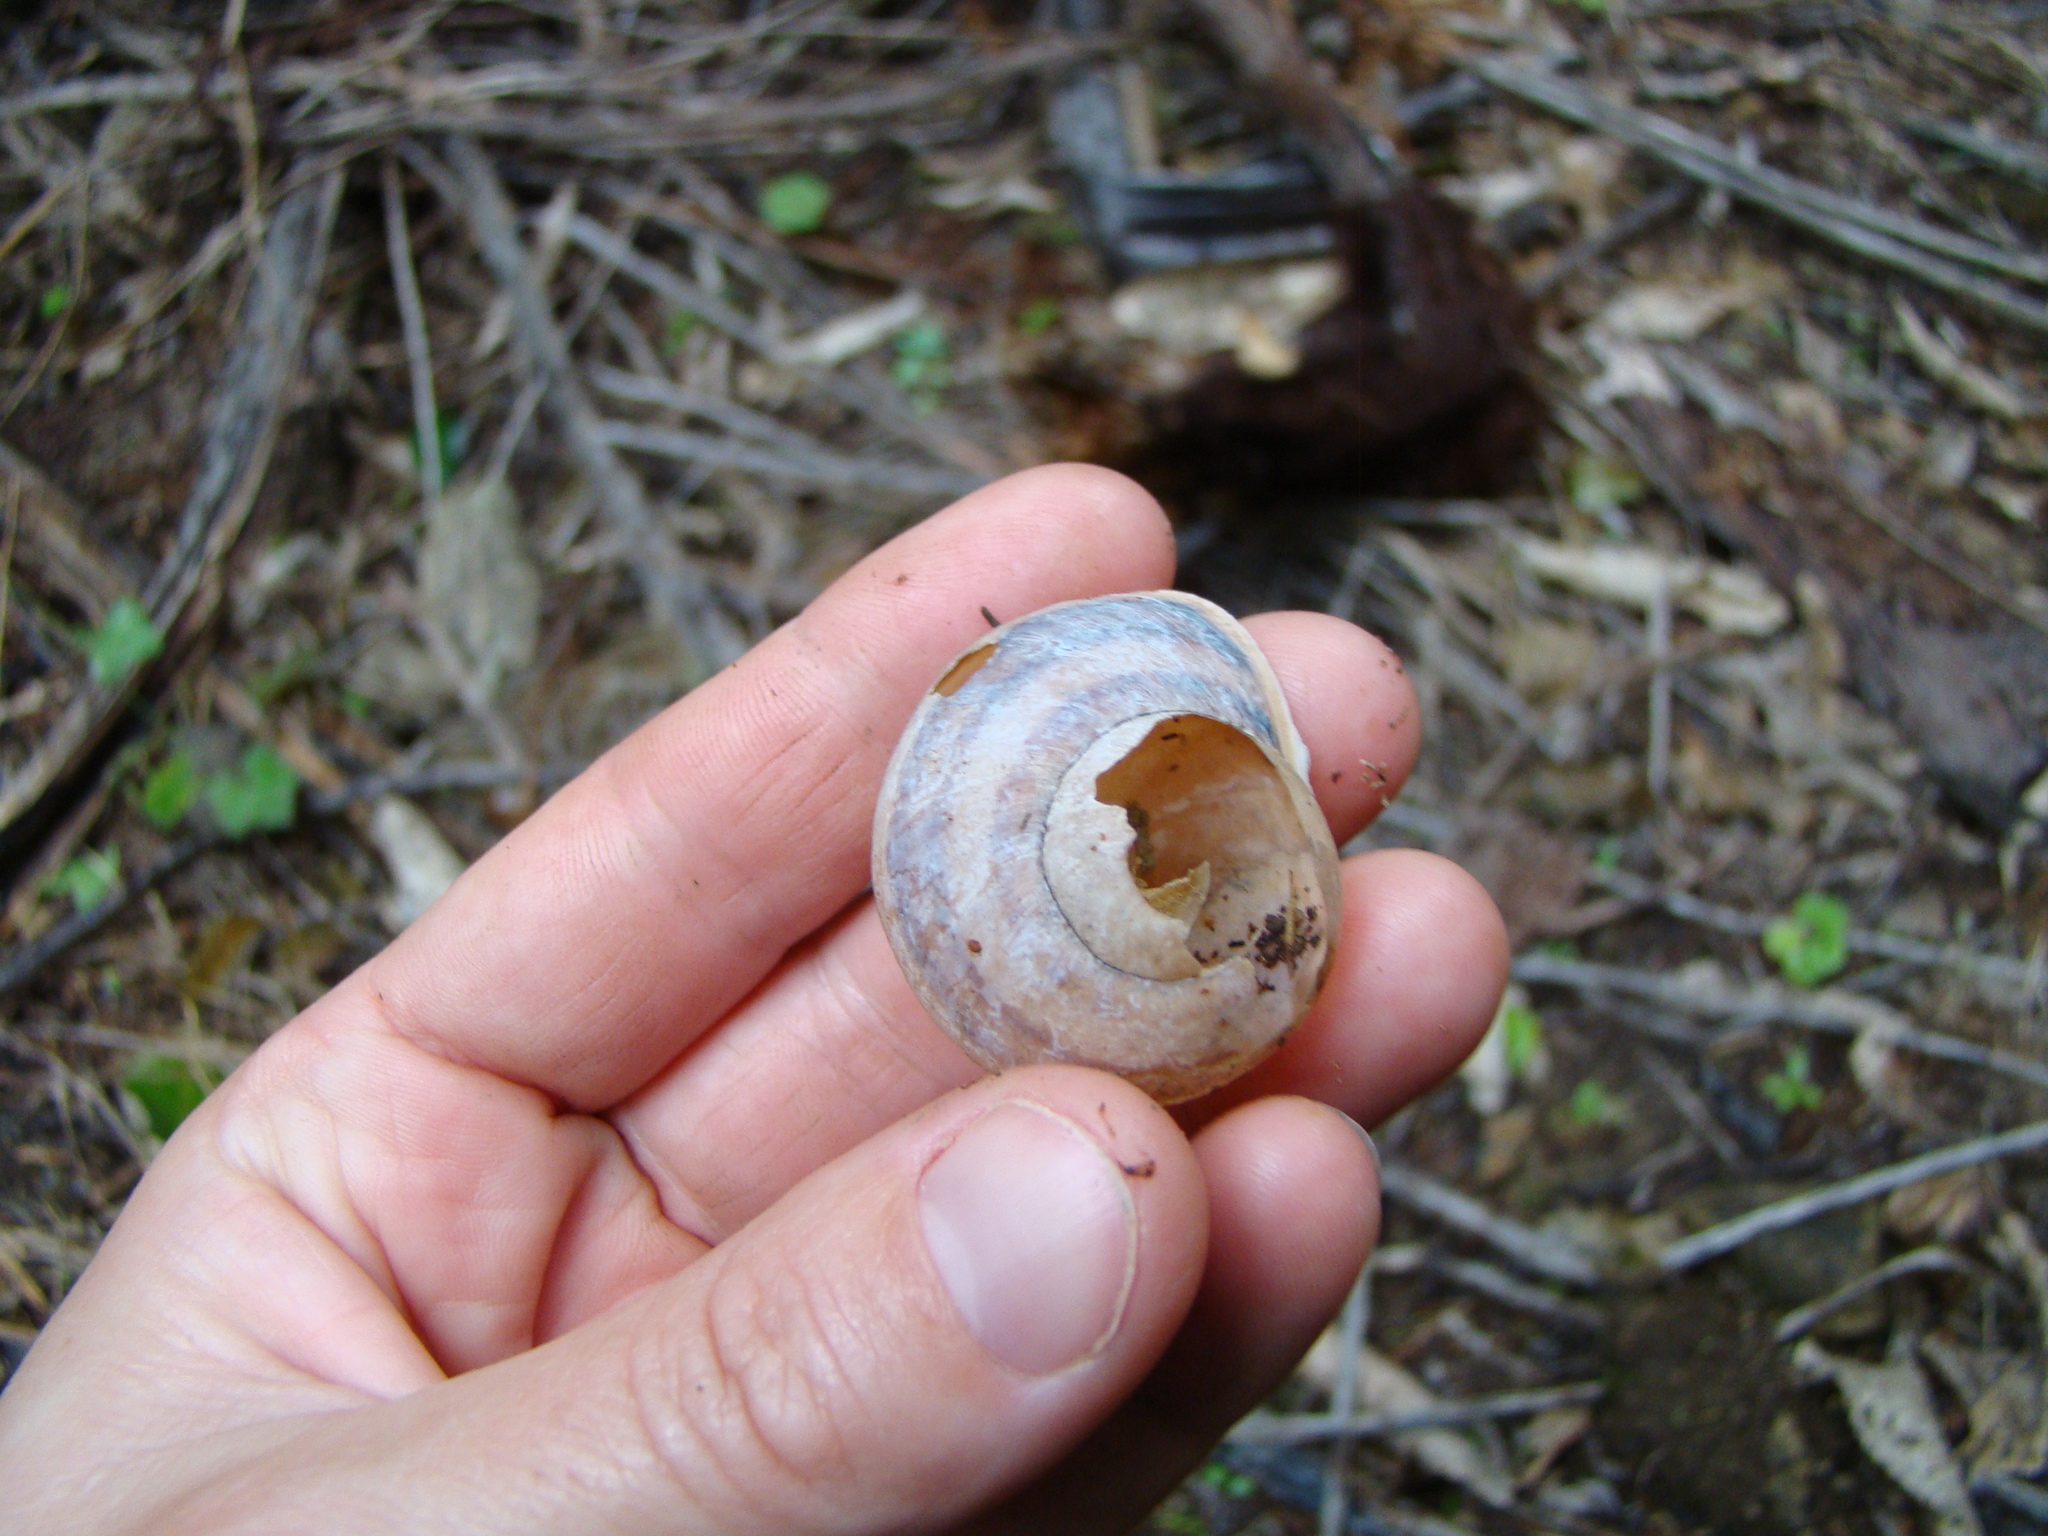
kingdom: Animalia
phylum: Mollusca
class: Gastropoda
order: Stylommatophora
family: Helicidae
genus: Cornu
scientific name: Cornu aspersum
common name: Brown garden snail
